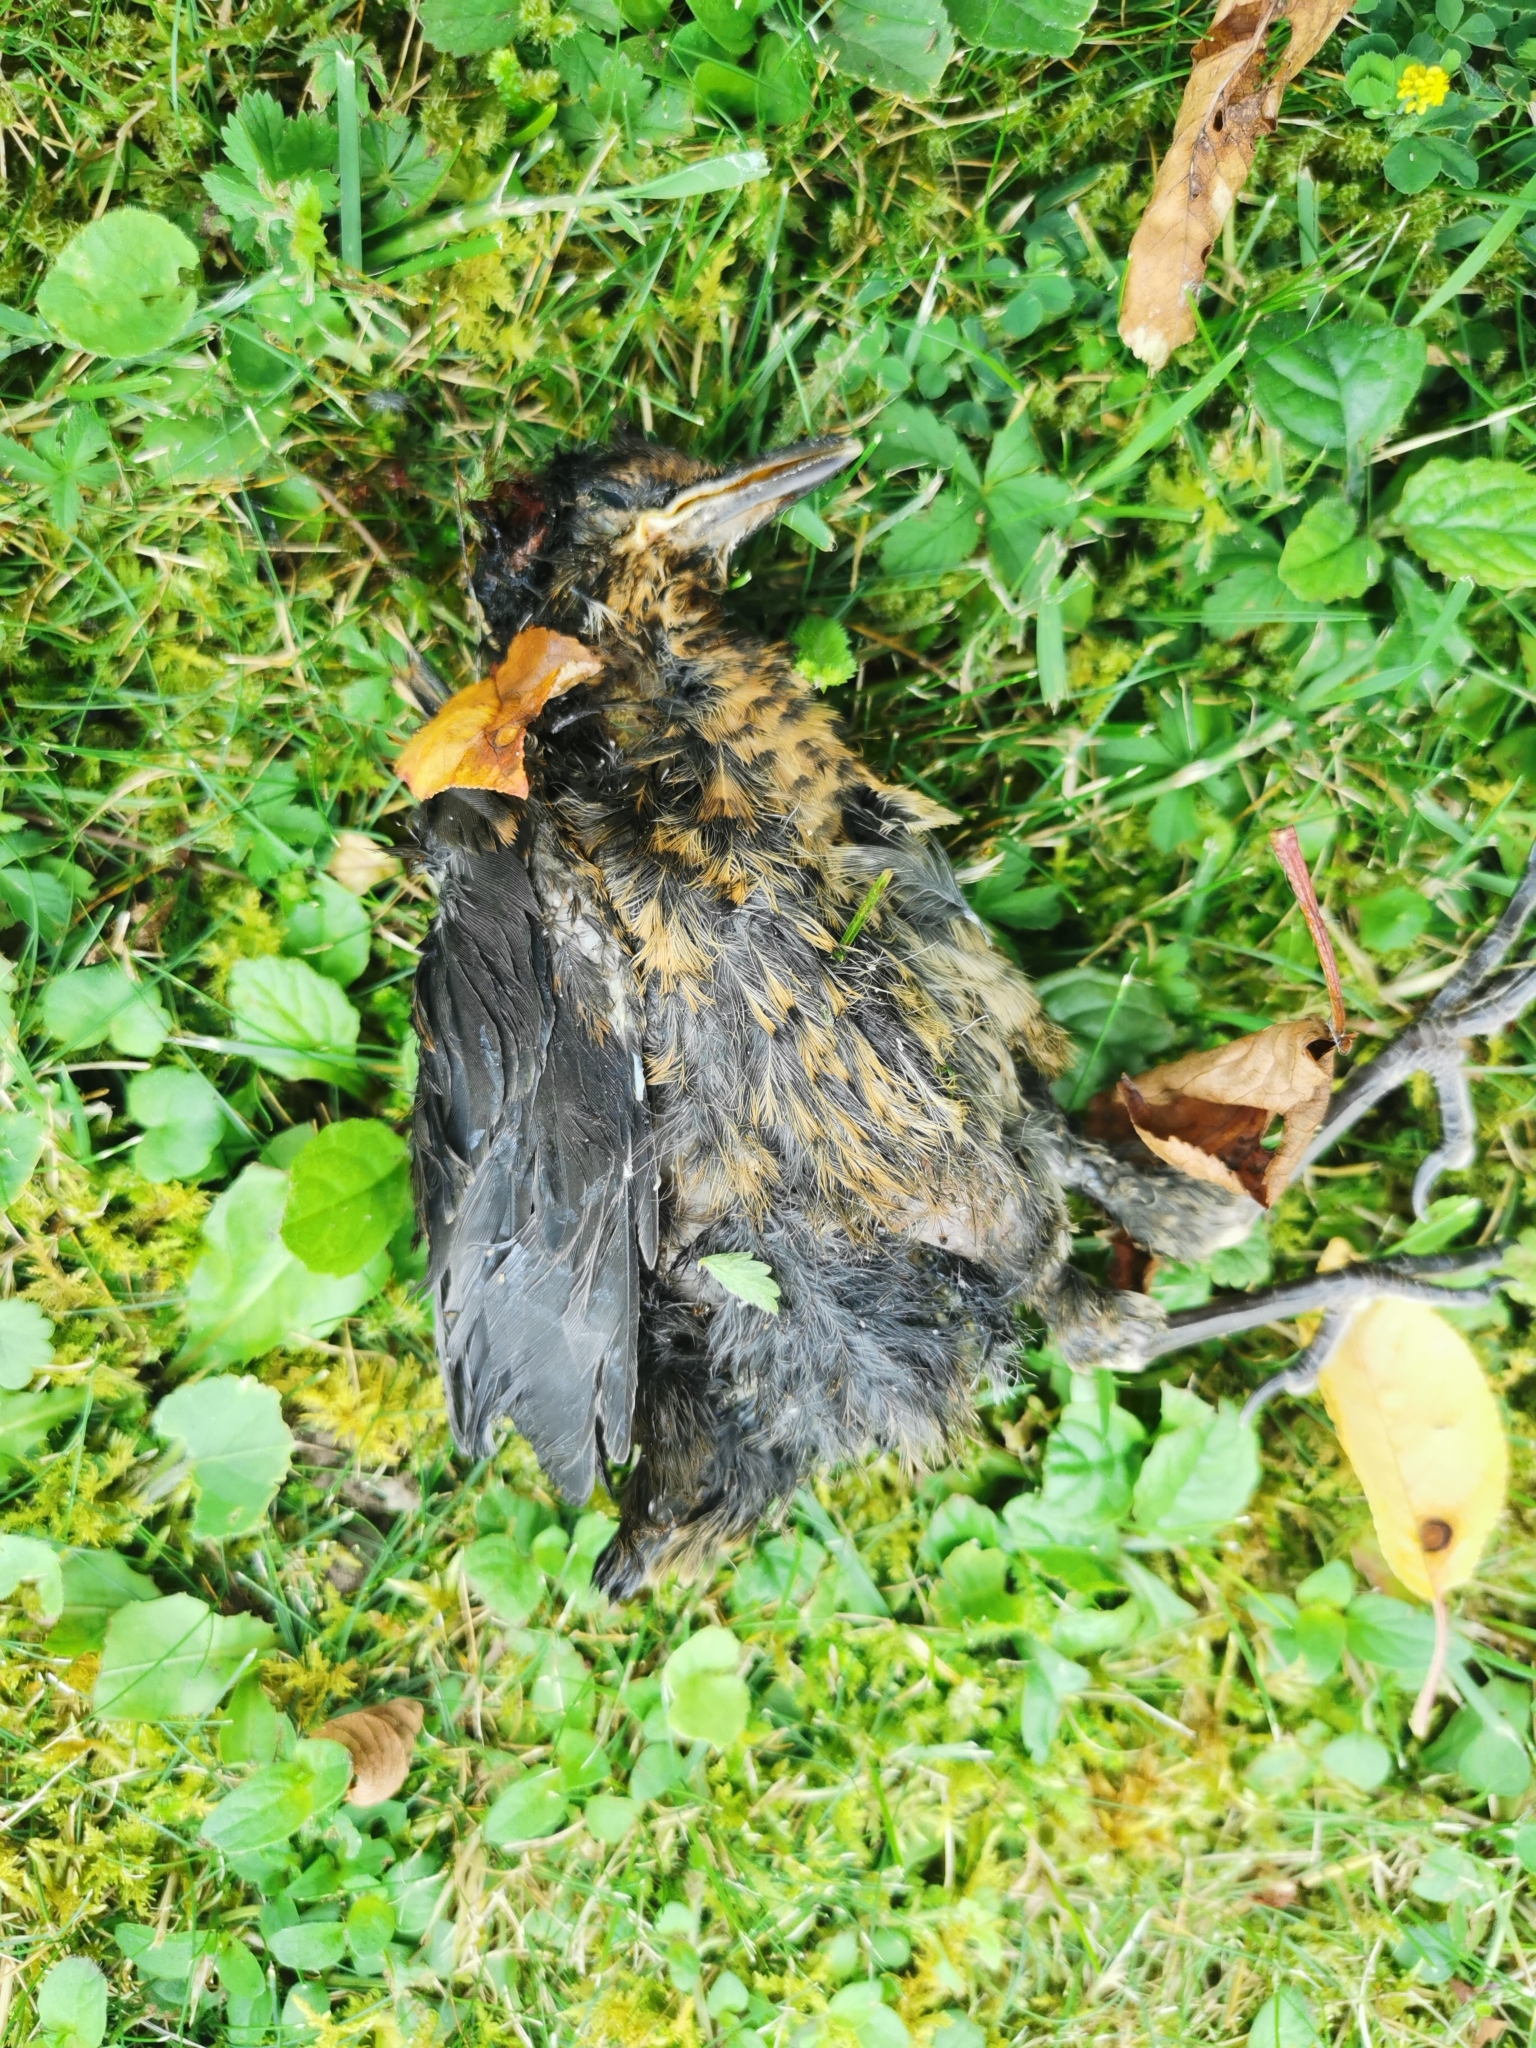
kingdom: Animalia
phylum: Chordata
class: Aves
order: Passeriformes
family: Turdidae
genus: Turdus
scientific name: Turdus merula
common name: Common blackbird
